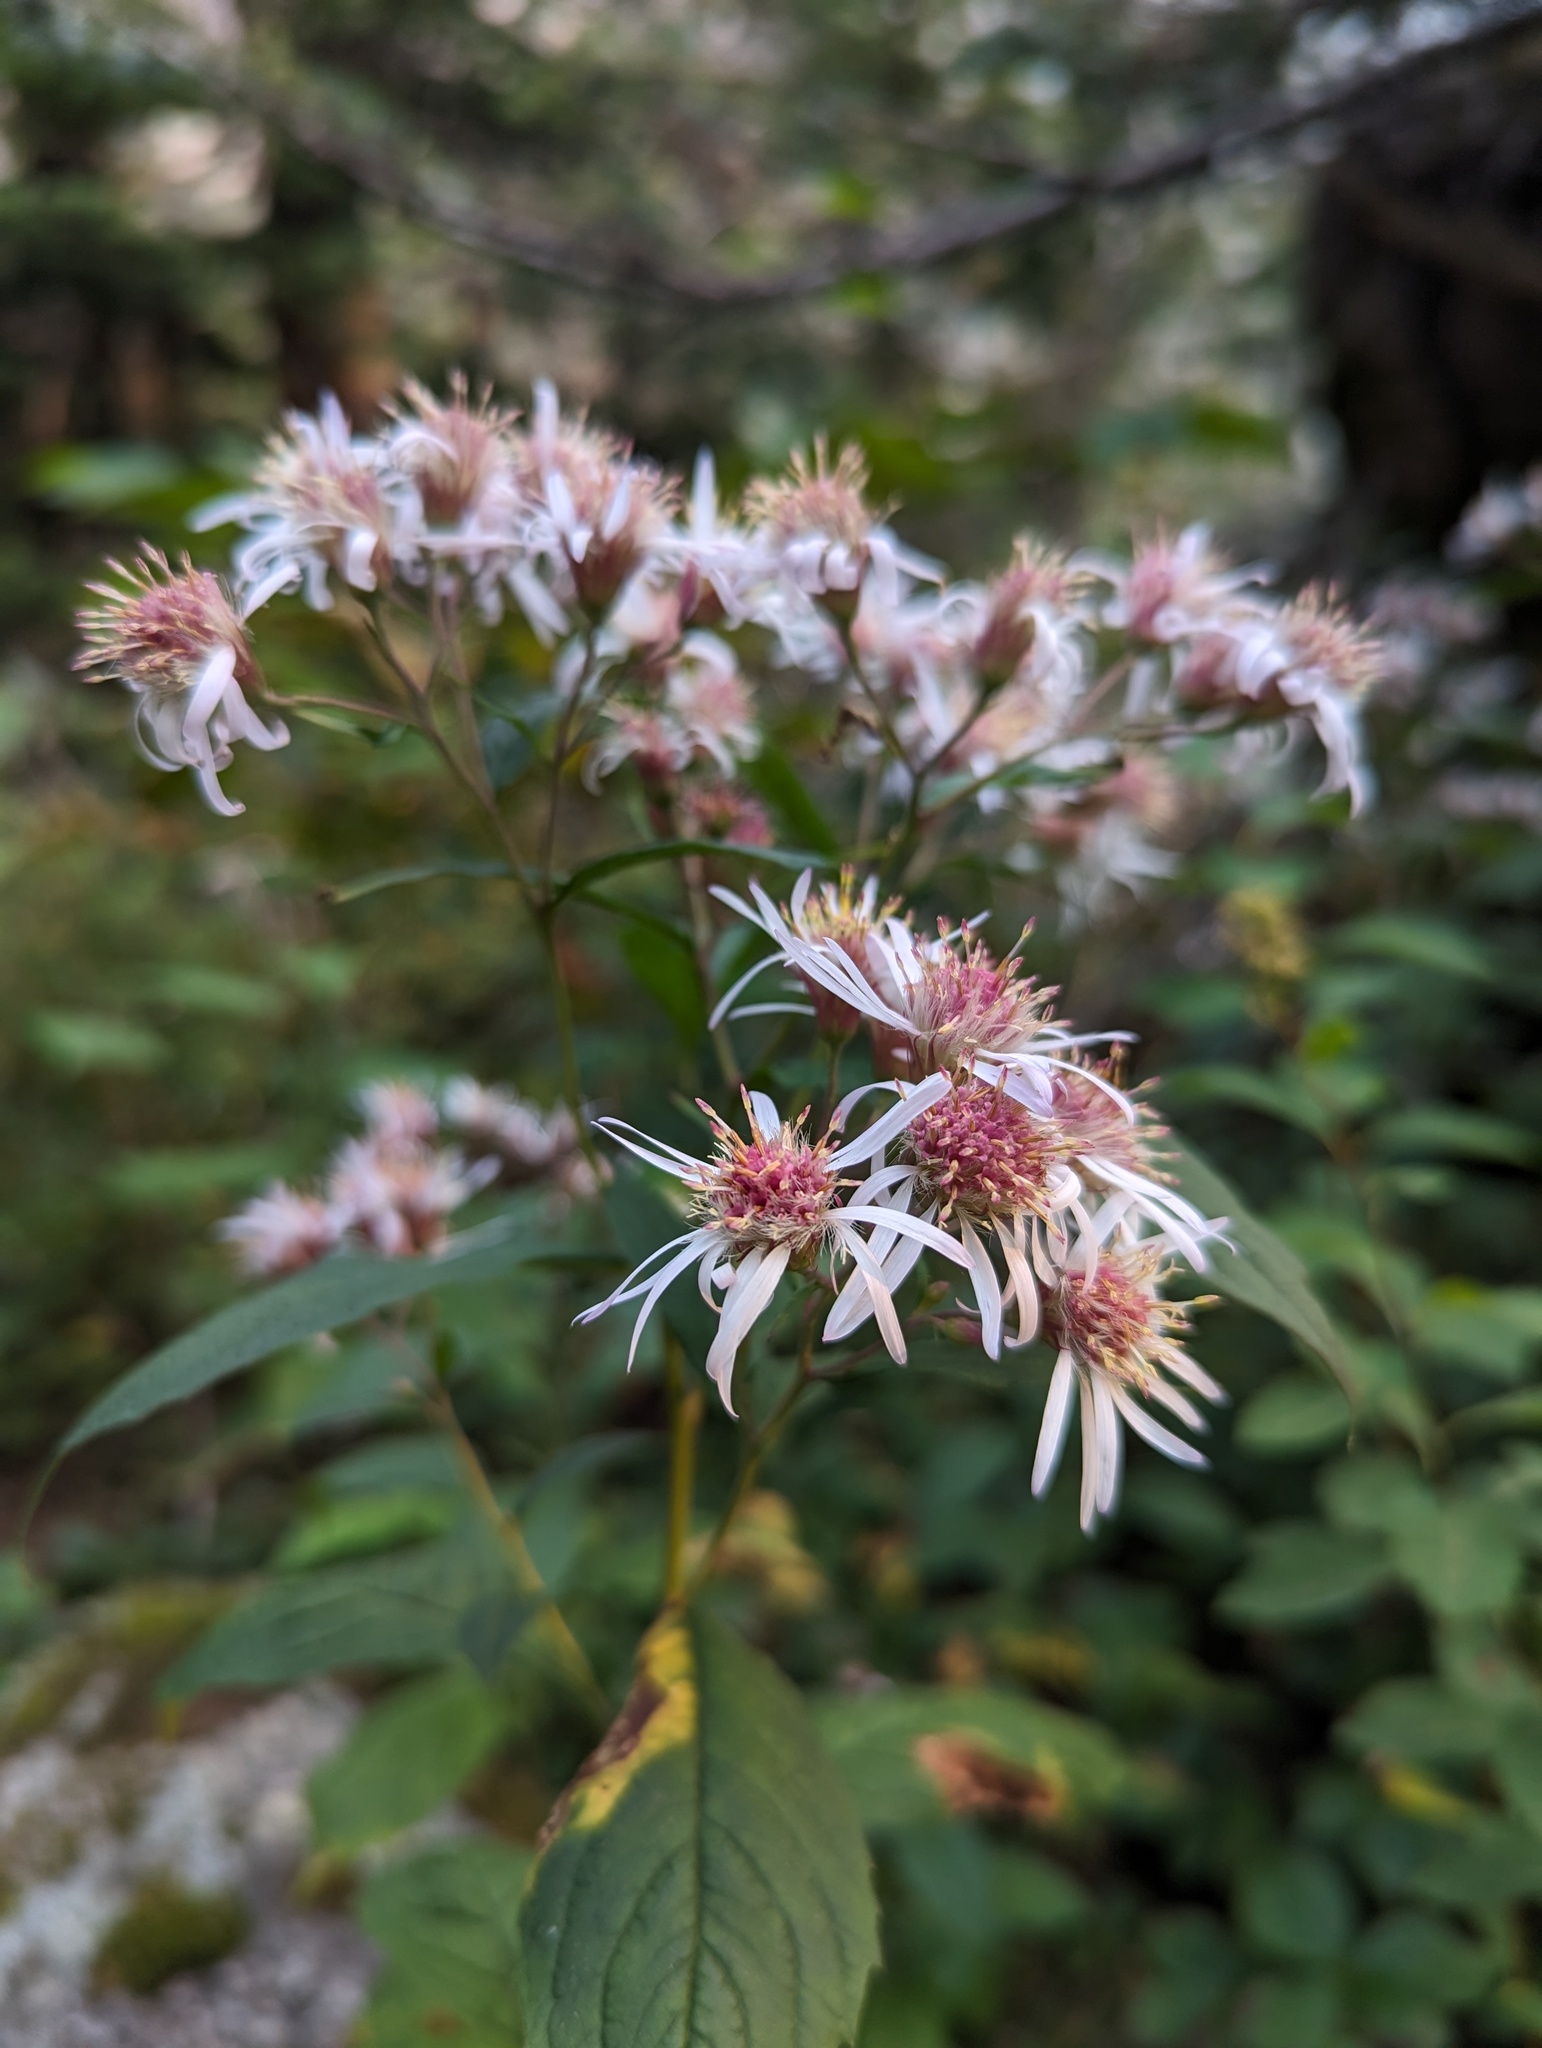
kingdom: Plantae
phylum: Tracheophyta
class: Magnoliopsida
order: Asterales
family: Asteraceae
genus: Oclemena
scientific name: Oclemena acuminata
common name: Mountain aster
